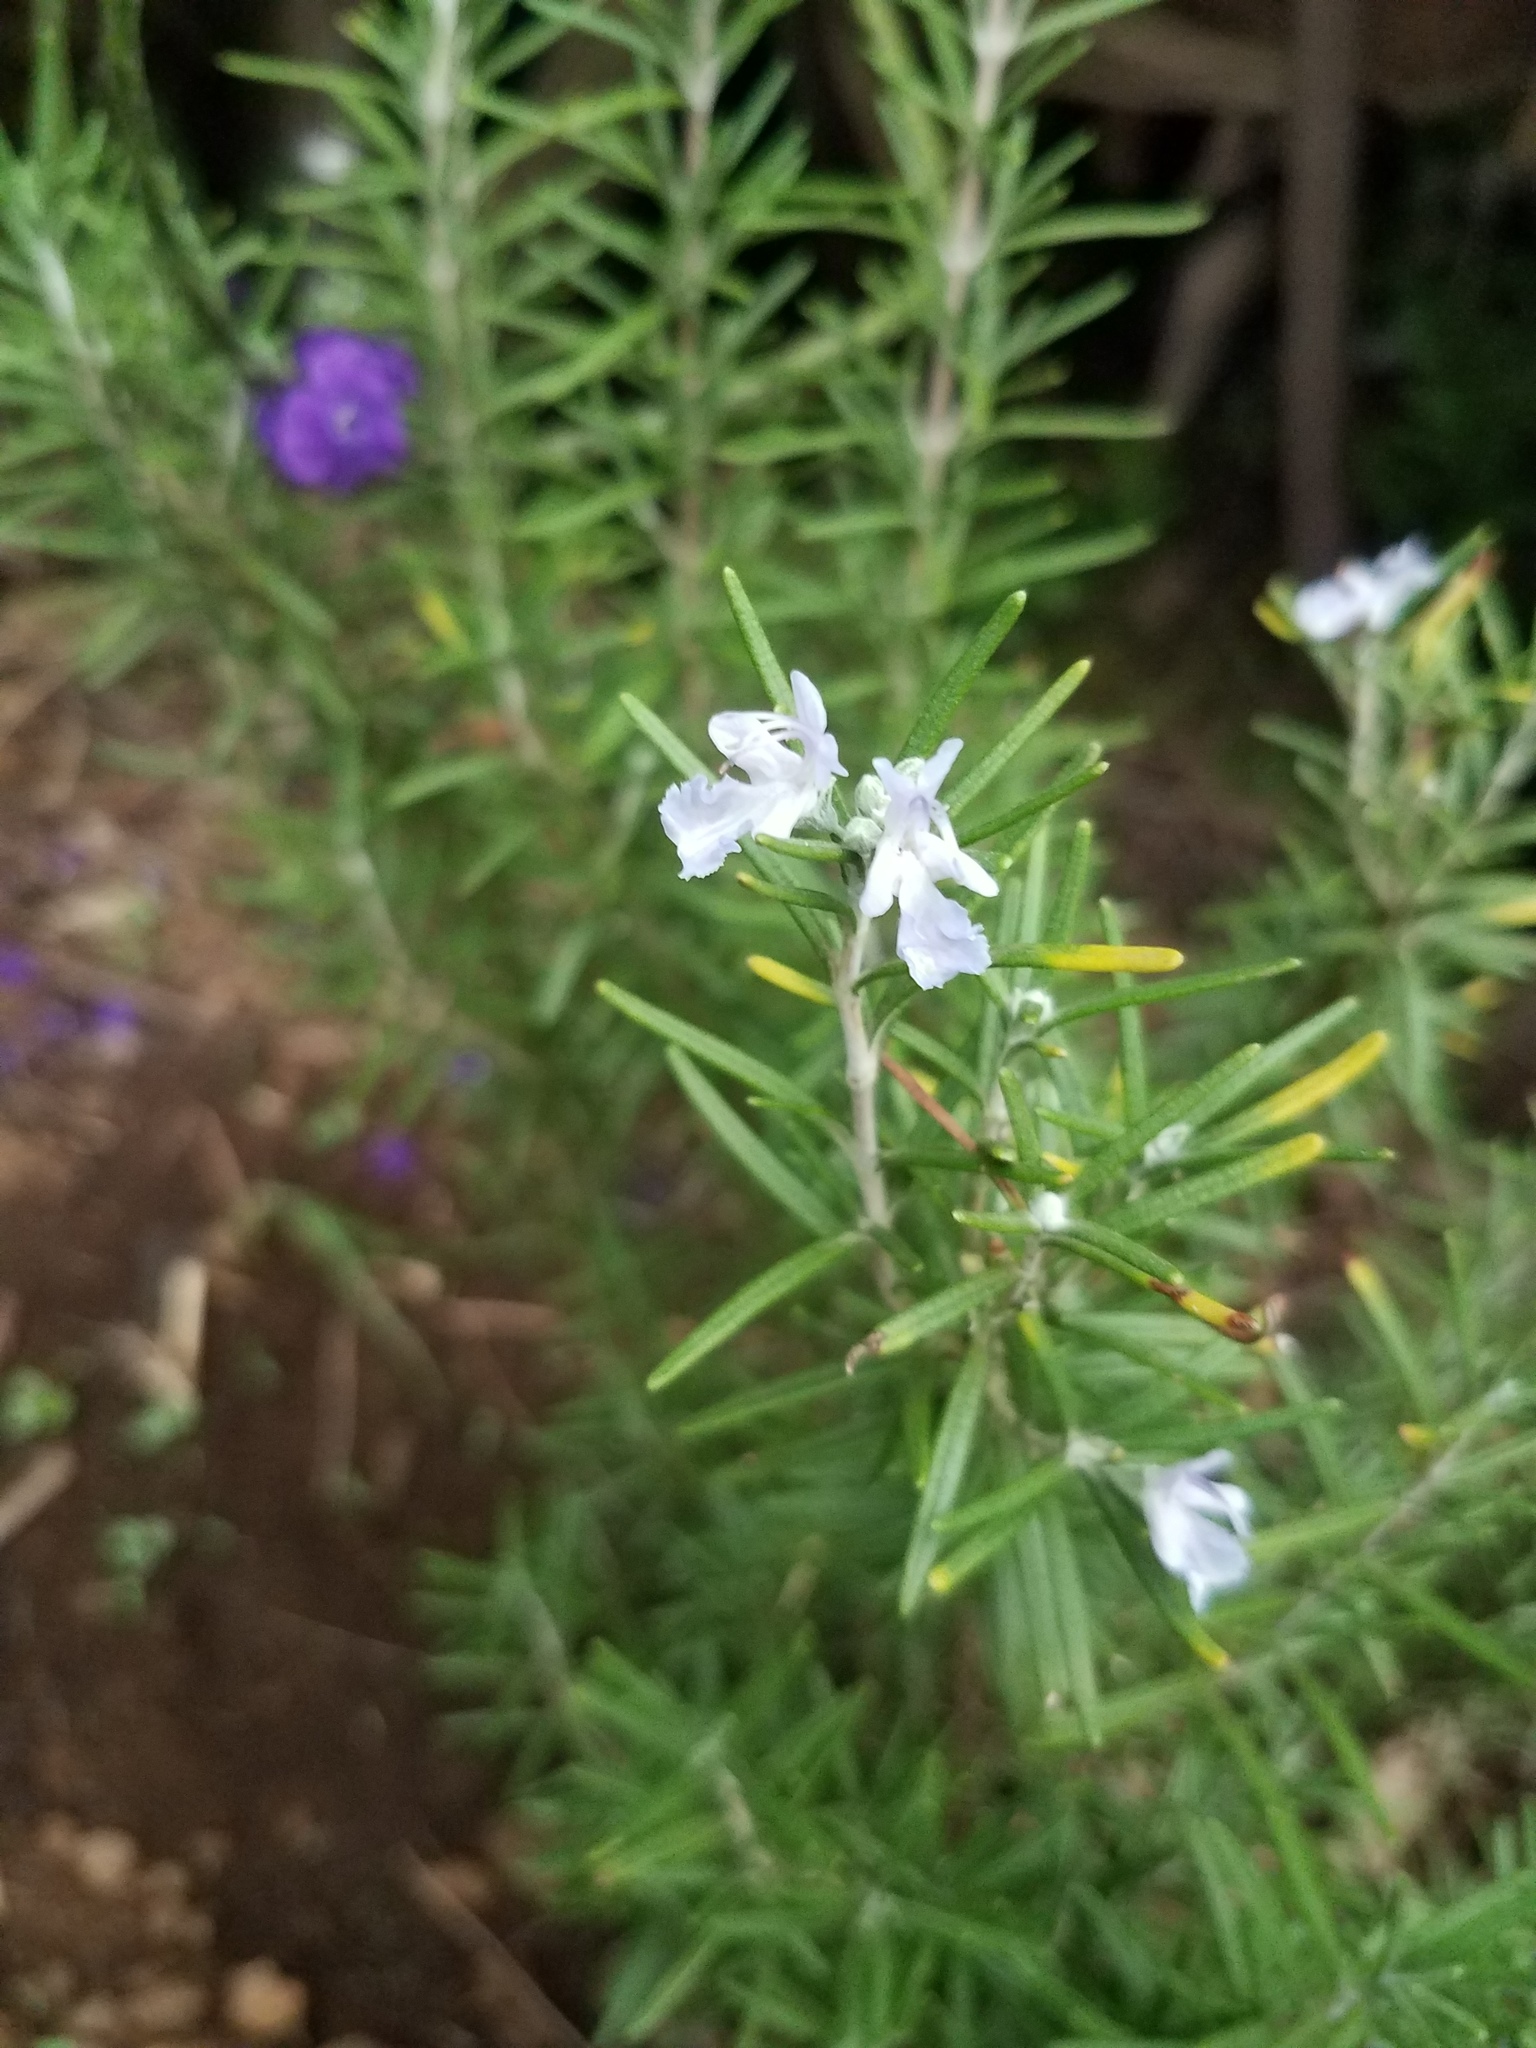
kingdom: Plantae
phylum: Tracheophyta
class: Magnoliopsida
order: Lamiales
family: Lamiaceae
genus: Salvia
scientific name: Salvia rosmarinus
